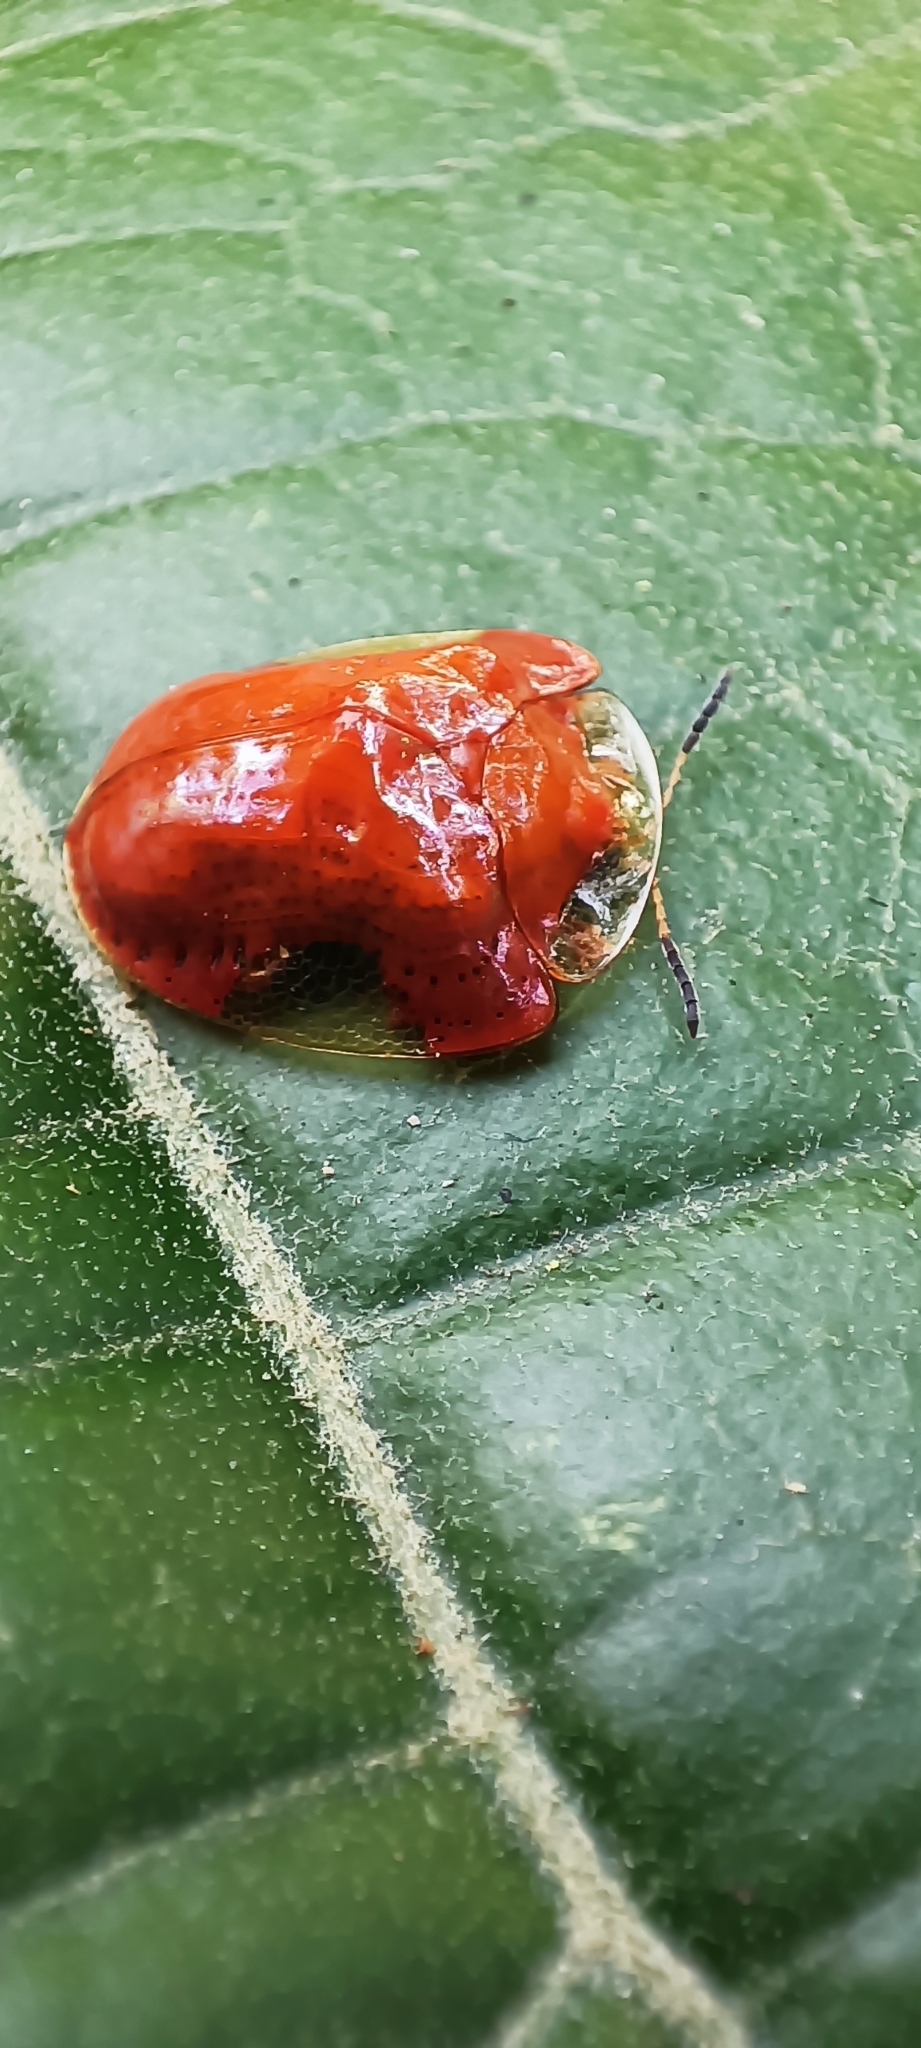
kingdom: Animalia
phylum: Arthropoda
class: Insecta
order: Coleoptera
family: Chrysomelidae
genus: Charidotella
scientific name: Charidotella tuberculata
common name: Tortoise beetle
